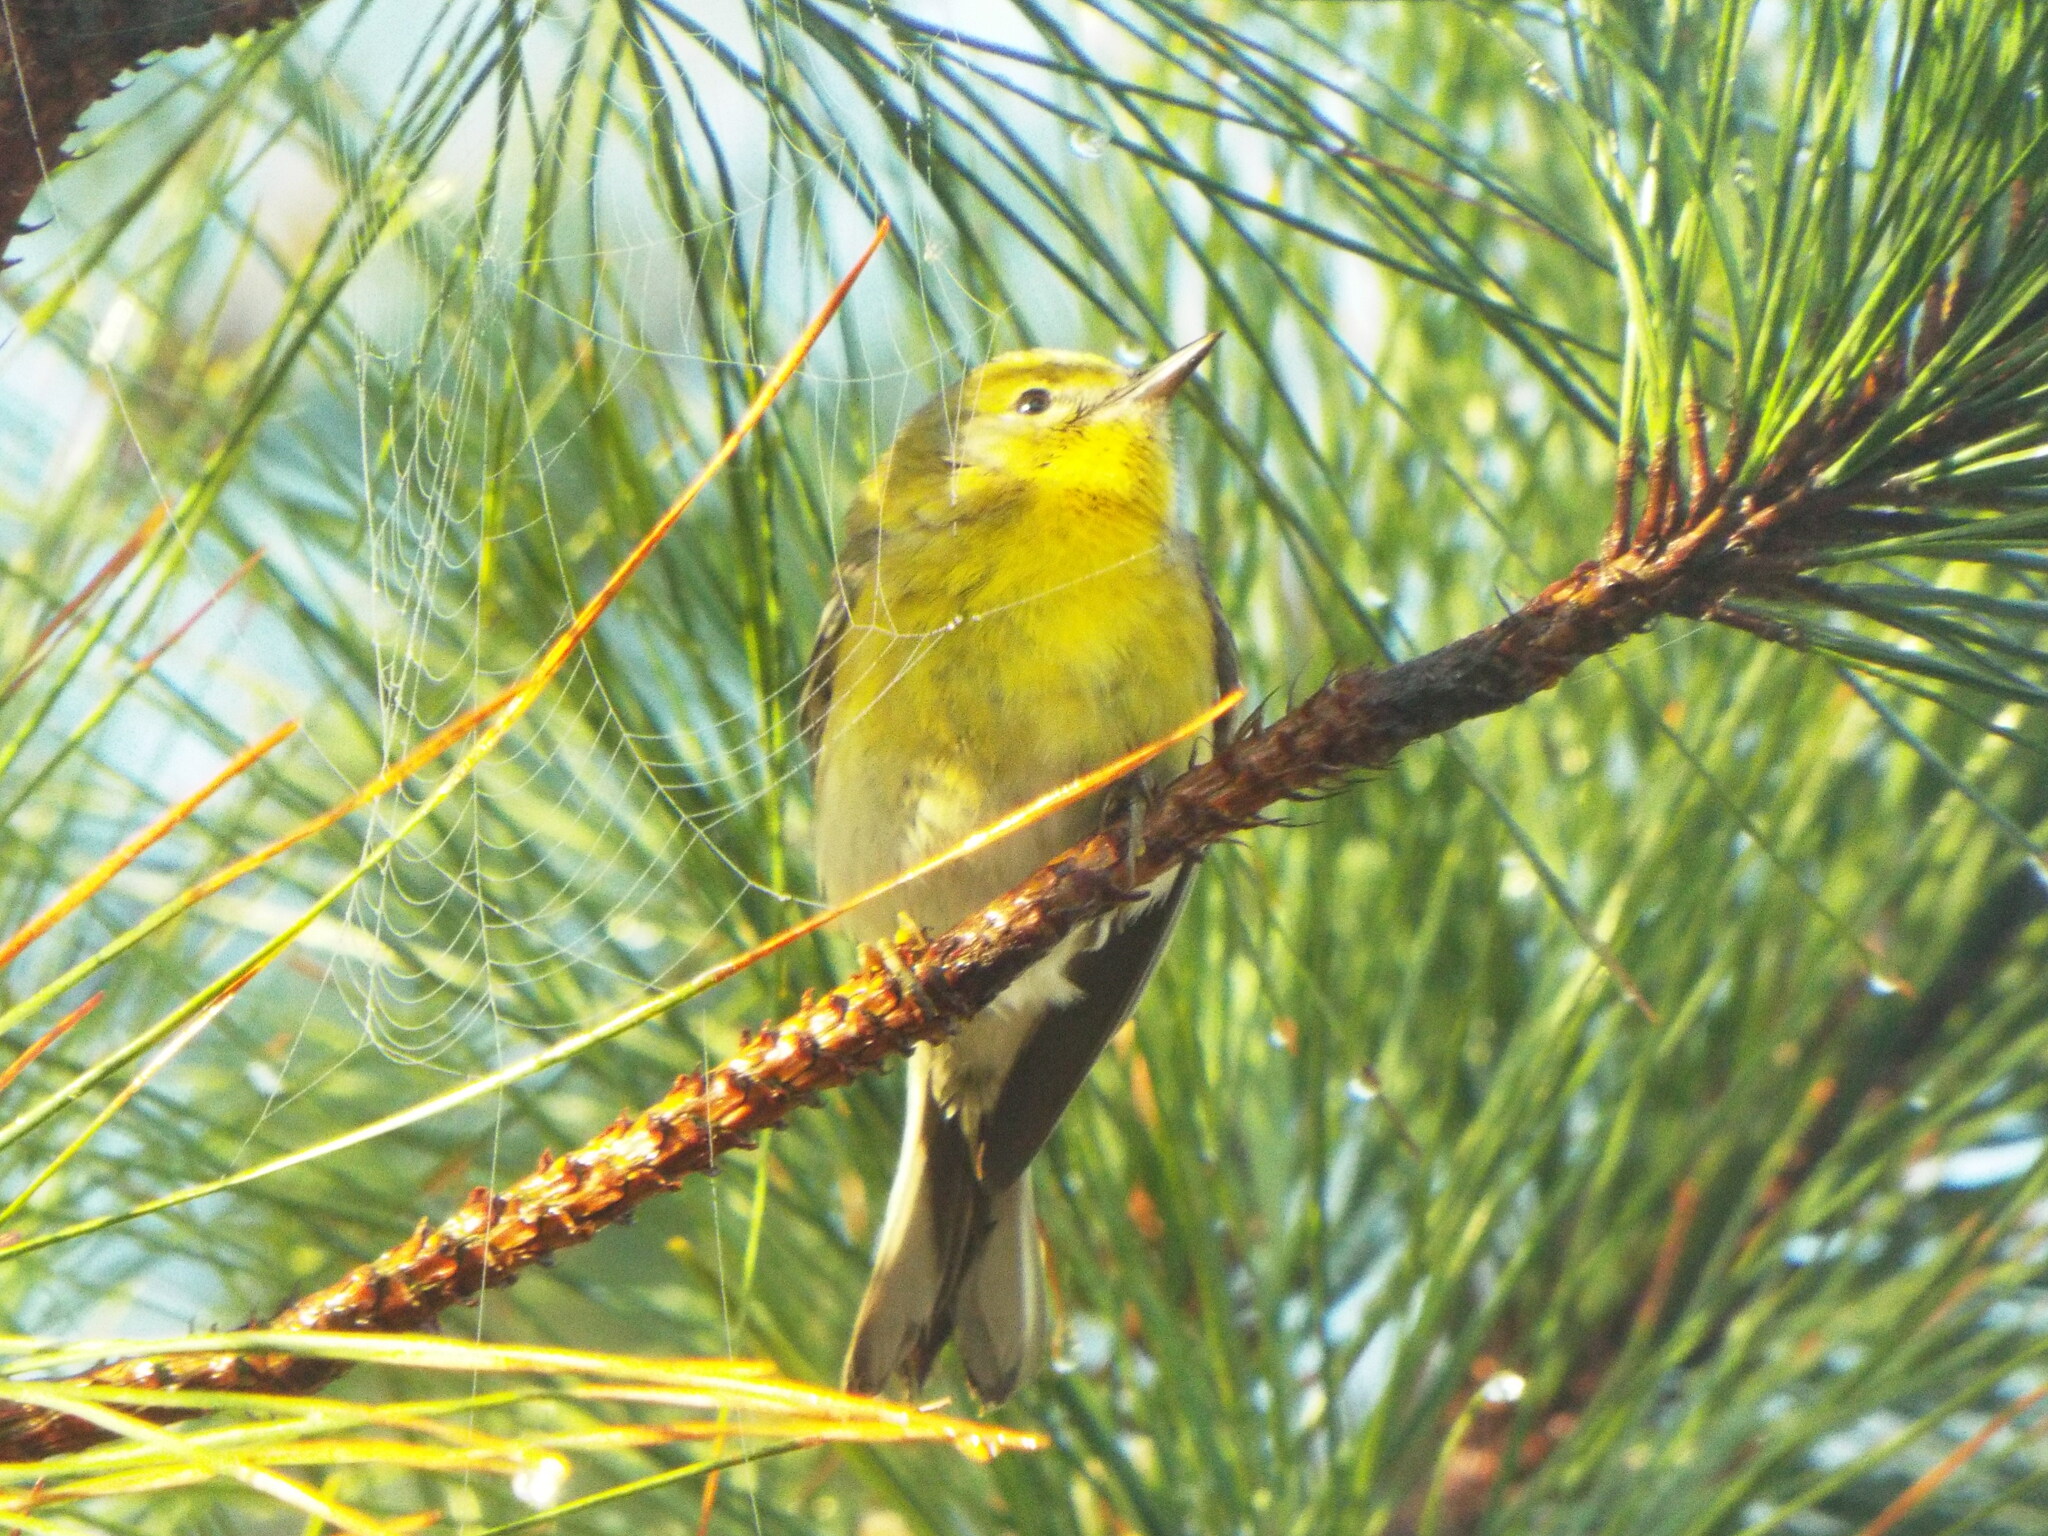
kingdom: Animalia
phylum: Chordata
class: Aves
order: Passeriformes
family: Parulidae
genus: Setophaga
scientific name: Setophaga pinus
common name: Pine warbler
